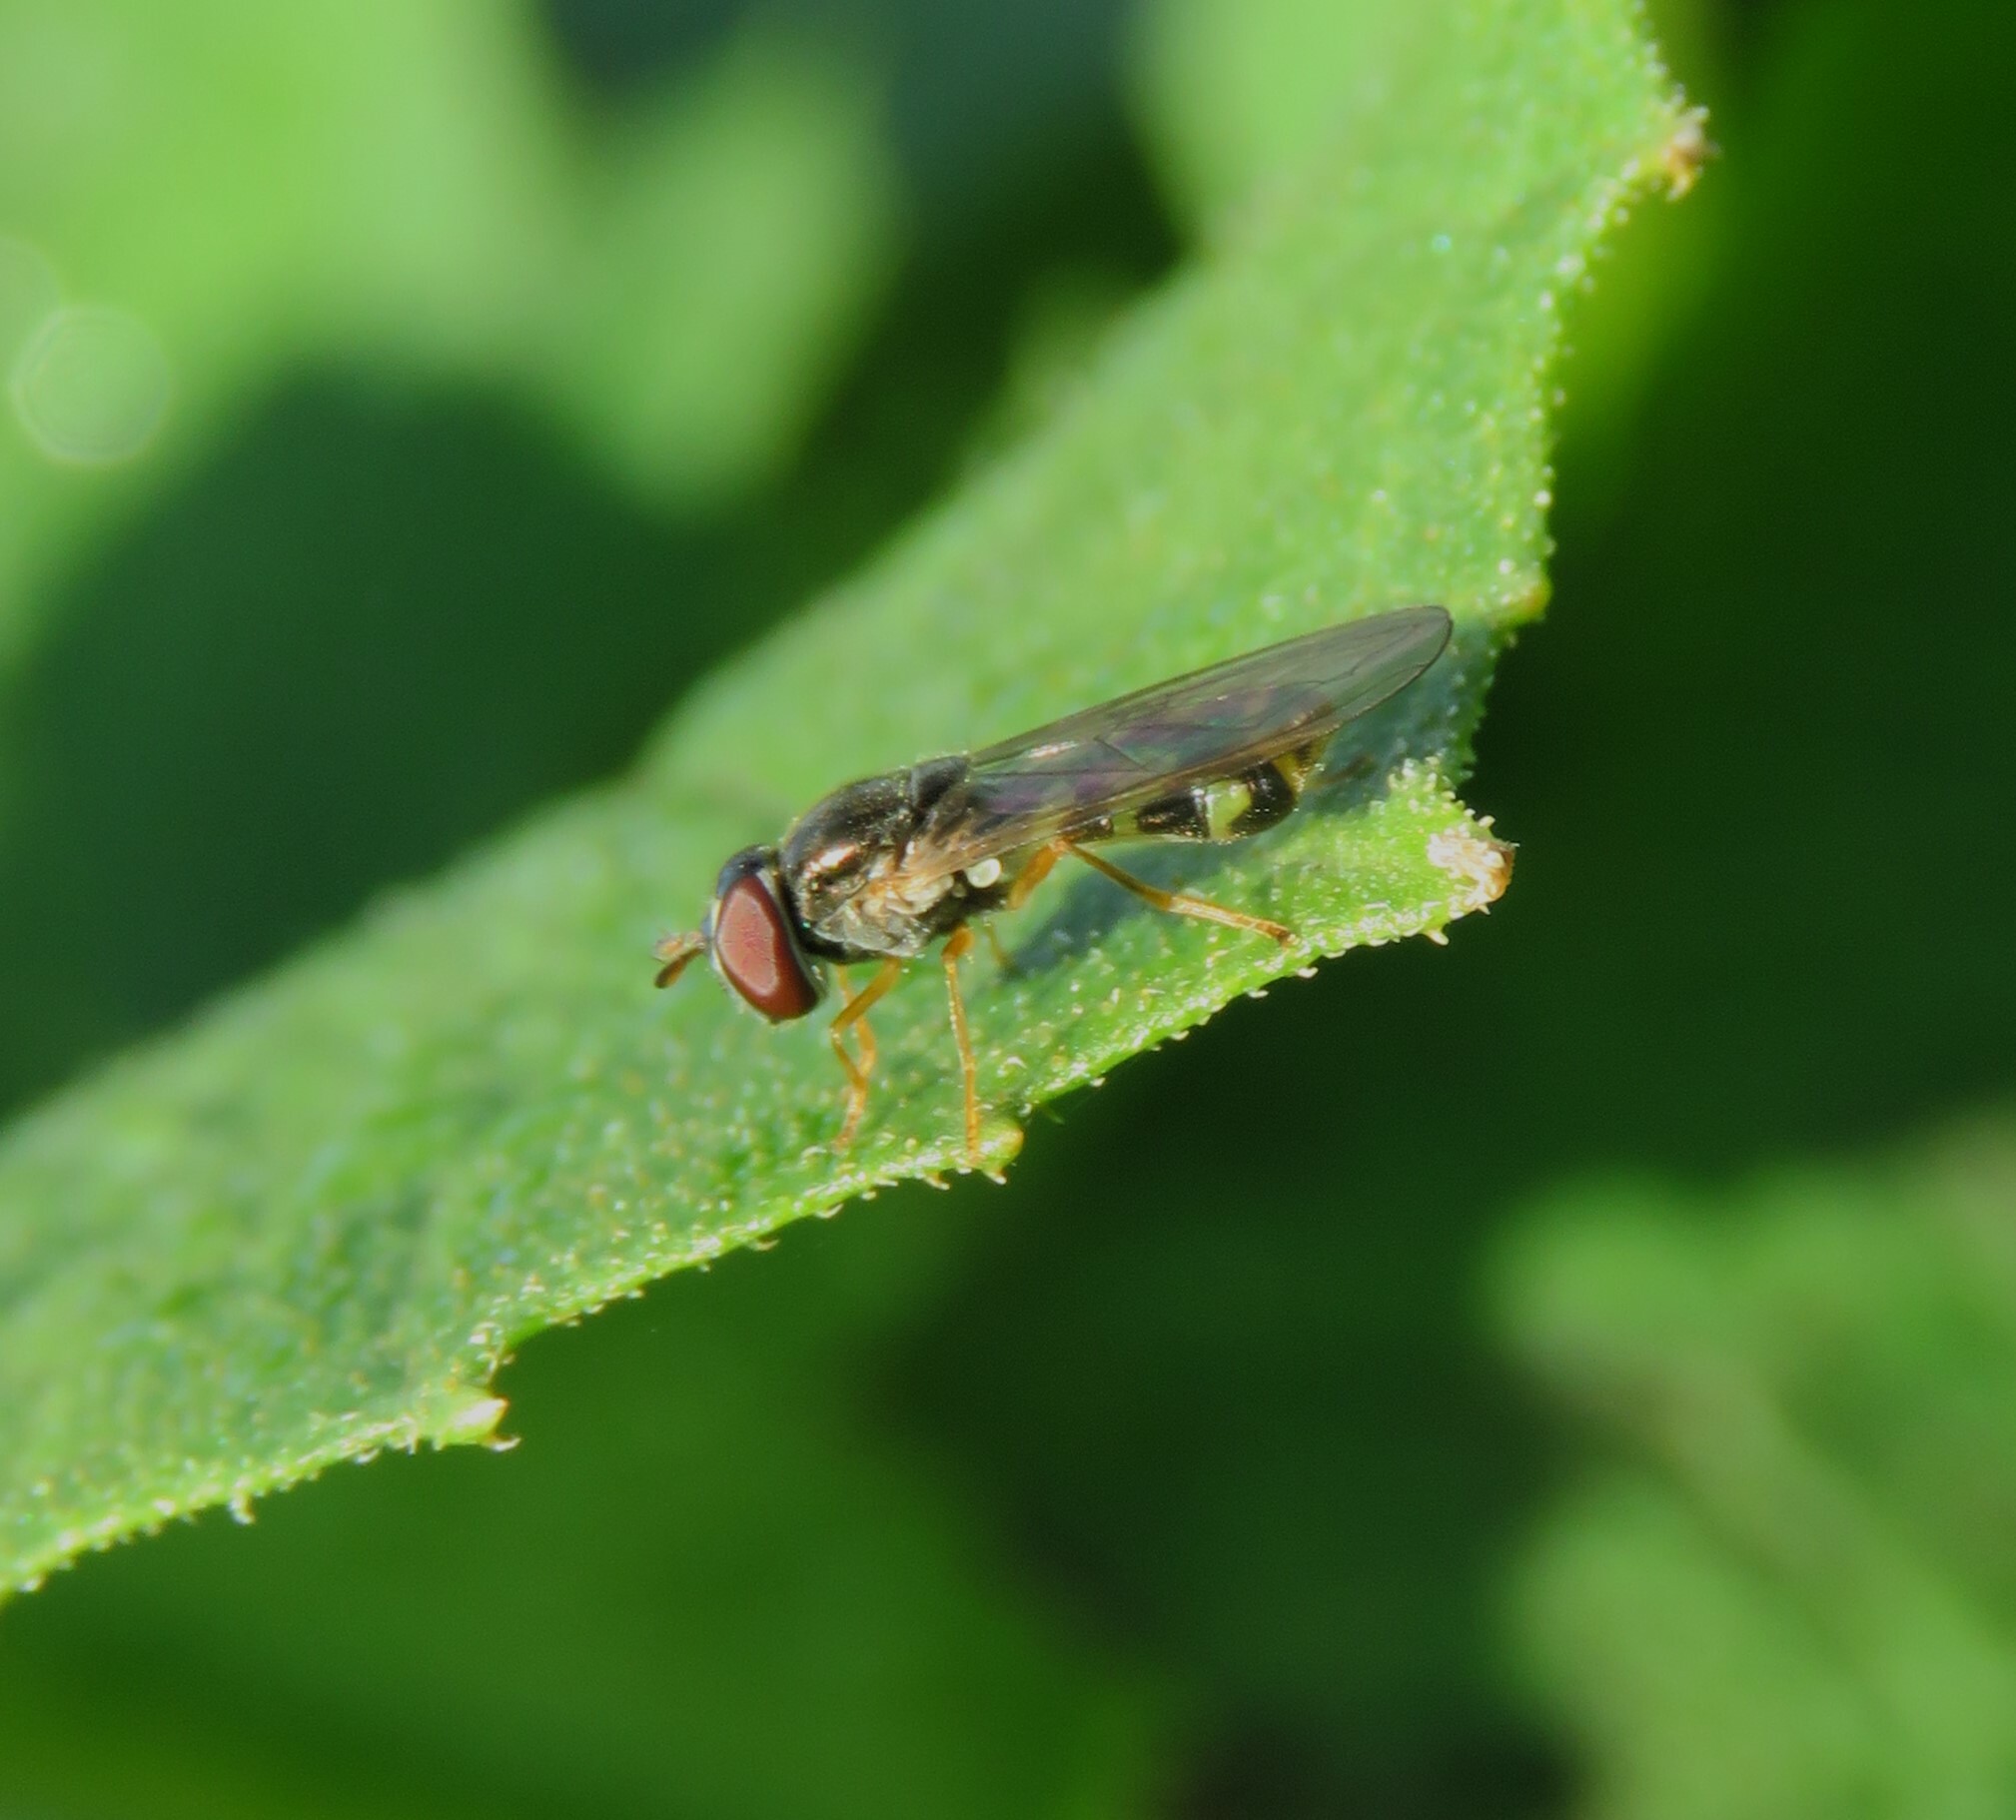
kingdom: Animalia
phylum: Arthropoda
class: Insecta
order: Diptera
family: Syrphidae
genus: Melanostoma
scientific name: Melanostoma mellina
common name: Hover fly
